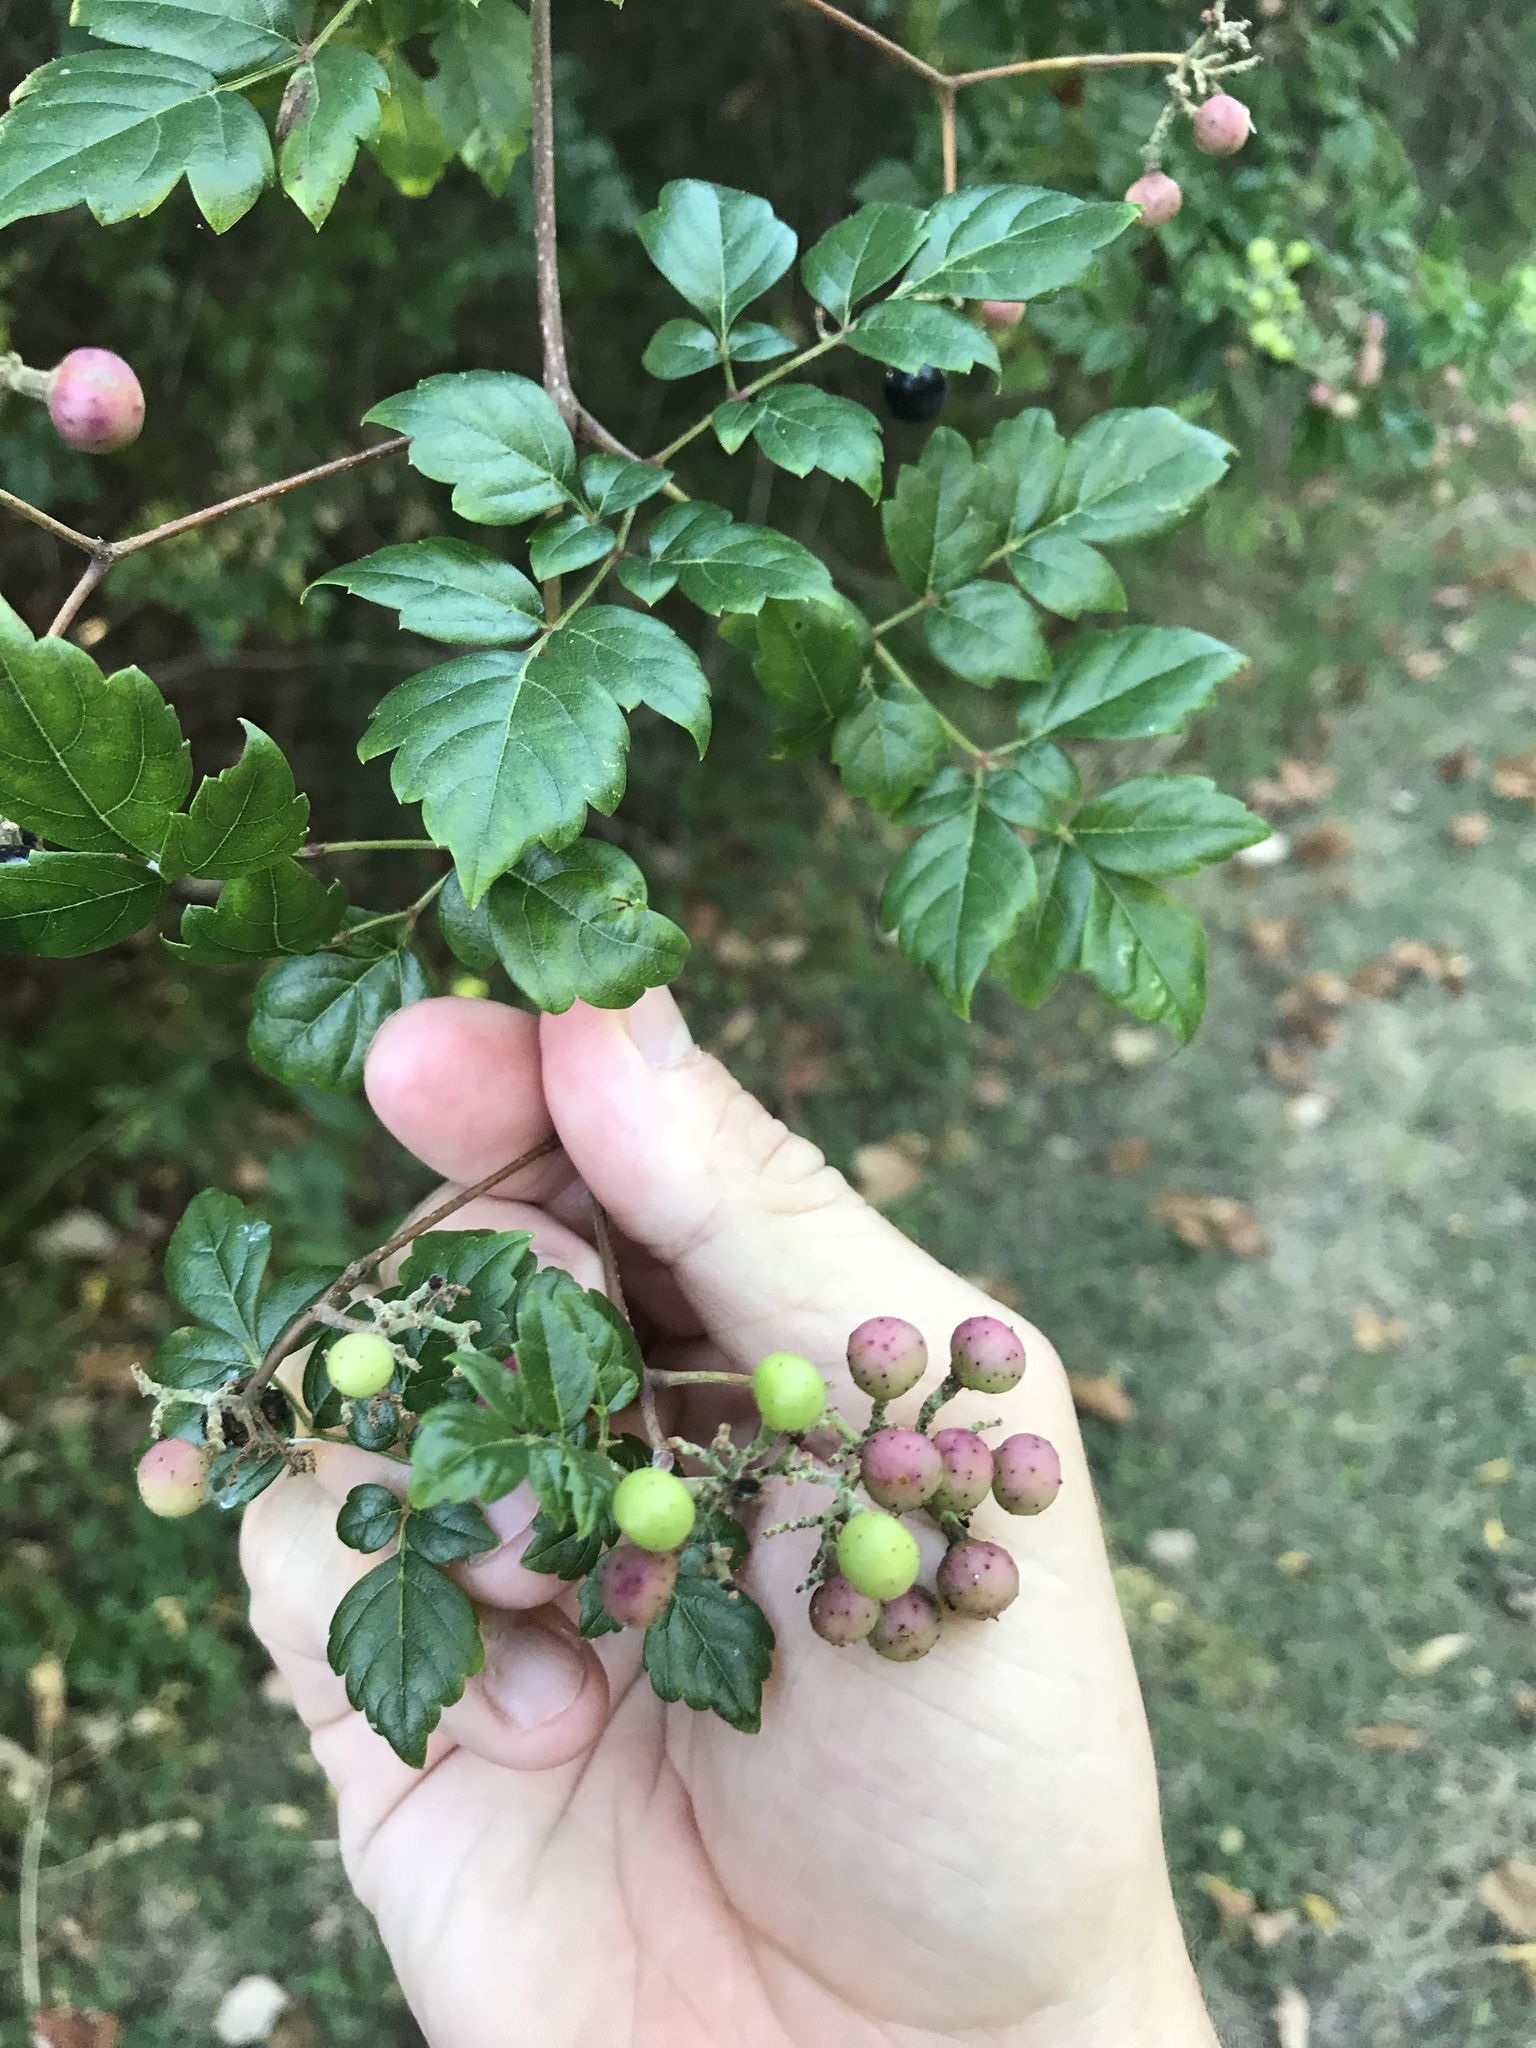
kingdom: Plantae
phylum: Tracheophyta
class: Magnoliopsida
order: Vitales
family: Vitaceae
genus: Nekemias
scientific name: Nekemias arborea
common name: Peppervine
